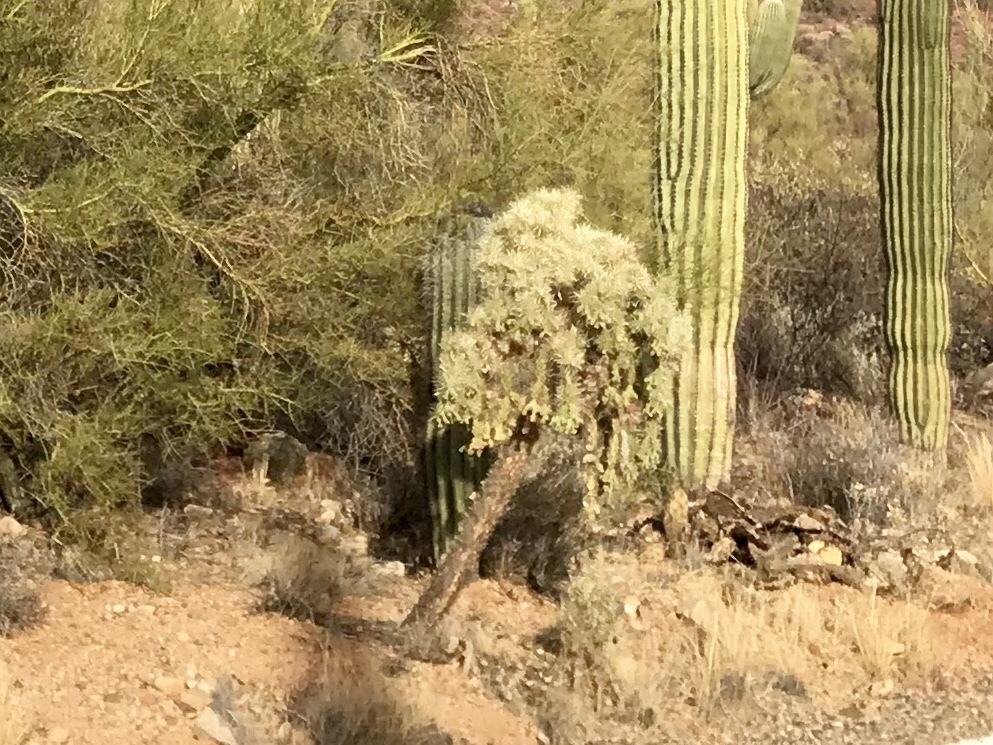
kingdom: Plantae
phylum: Tracheophyta
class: Magnoliopsida
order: Caryophyllales
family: Cactaceae
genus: Cylindropuntia
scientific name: Cylindropuntia fulgida
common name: Jumping cholla
